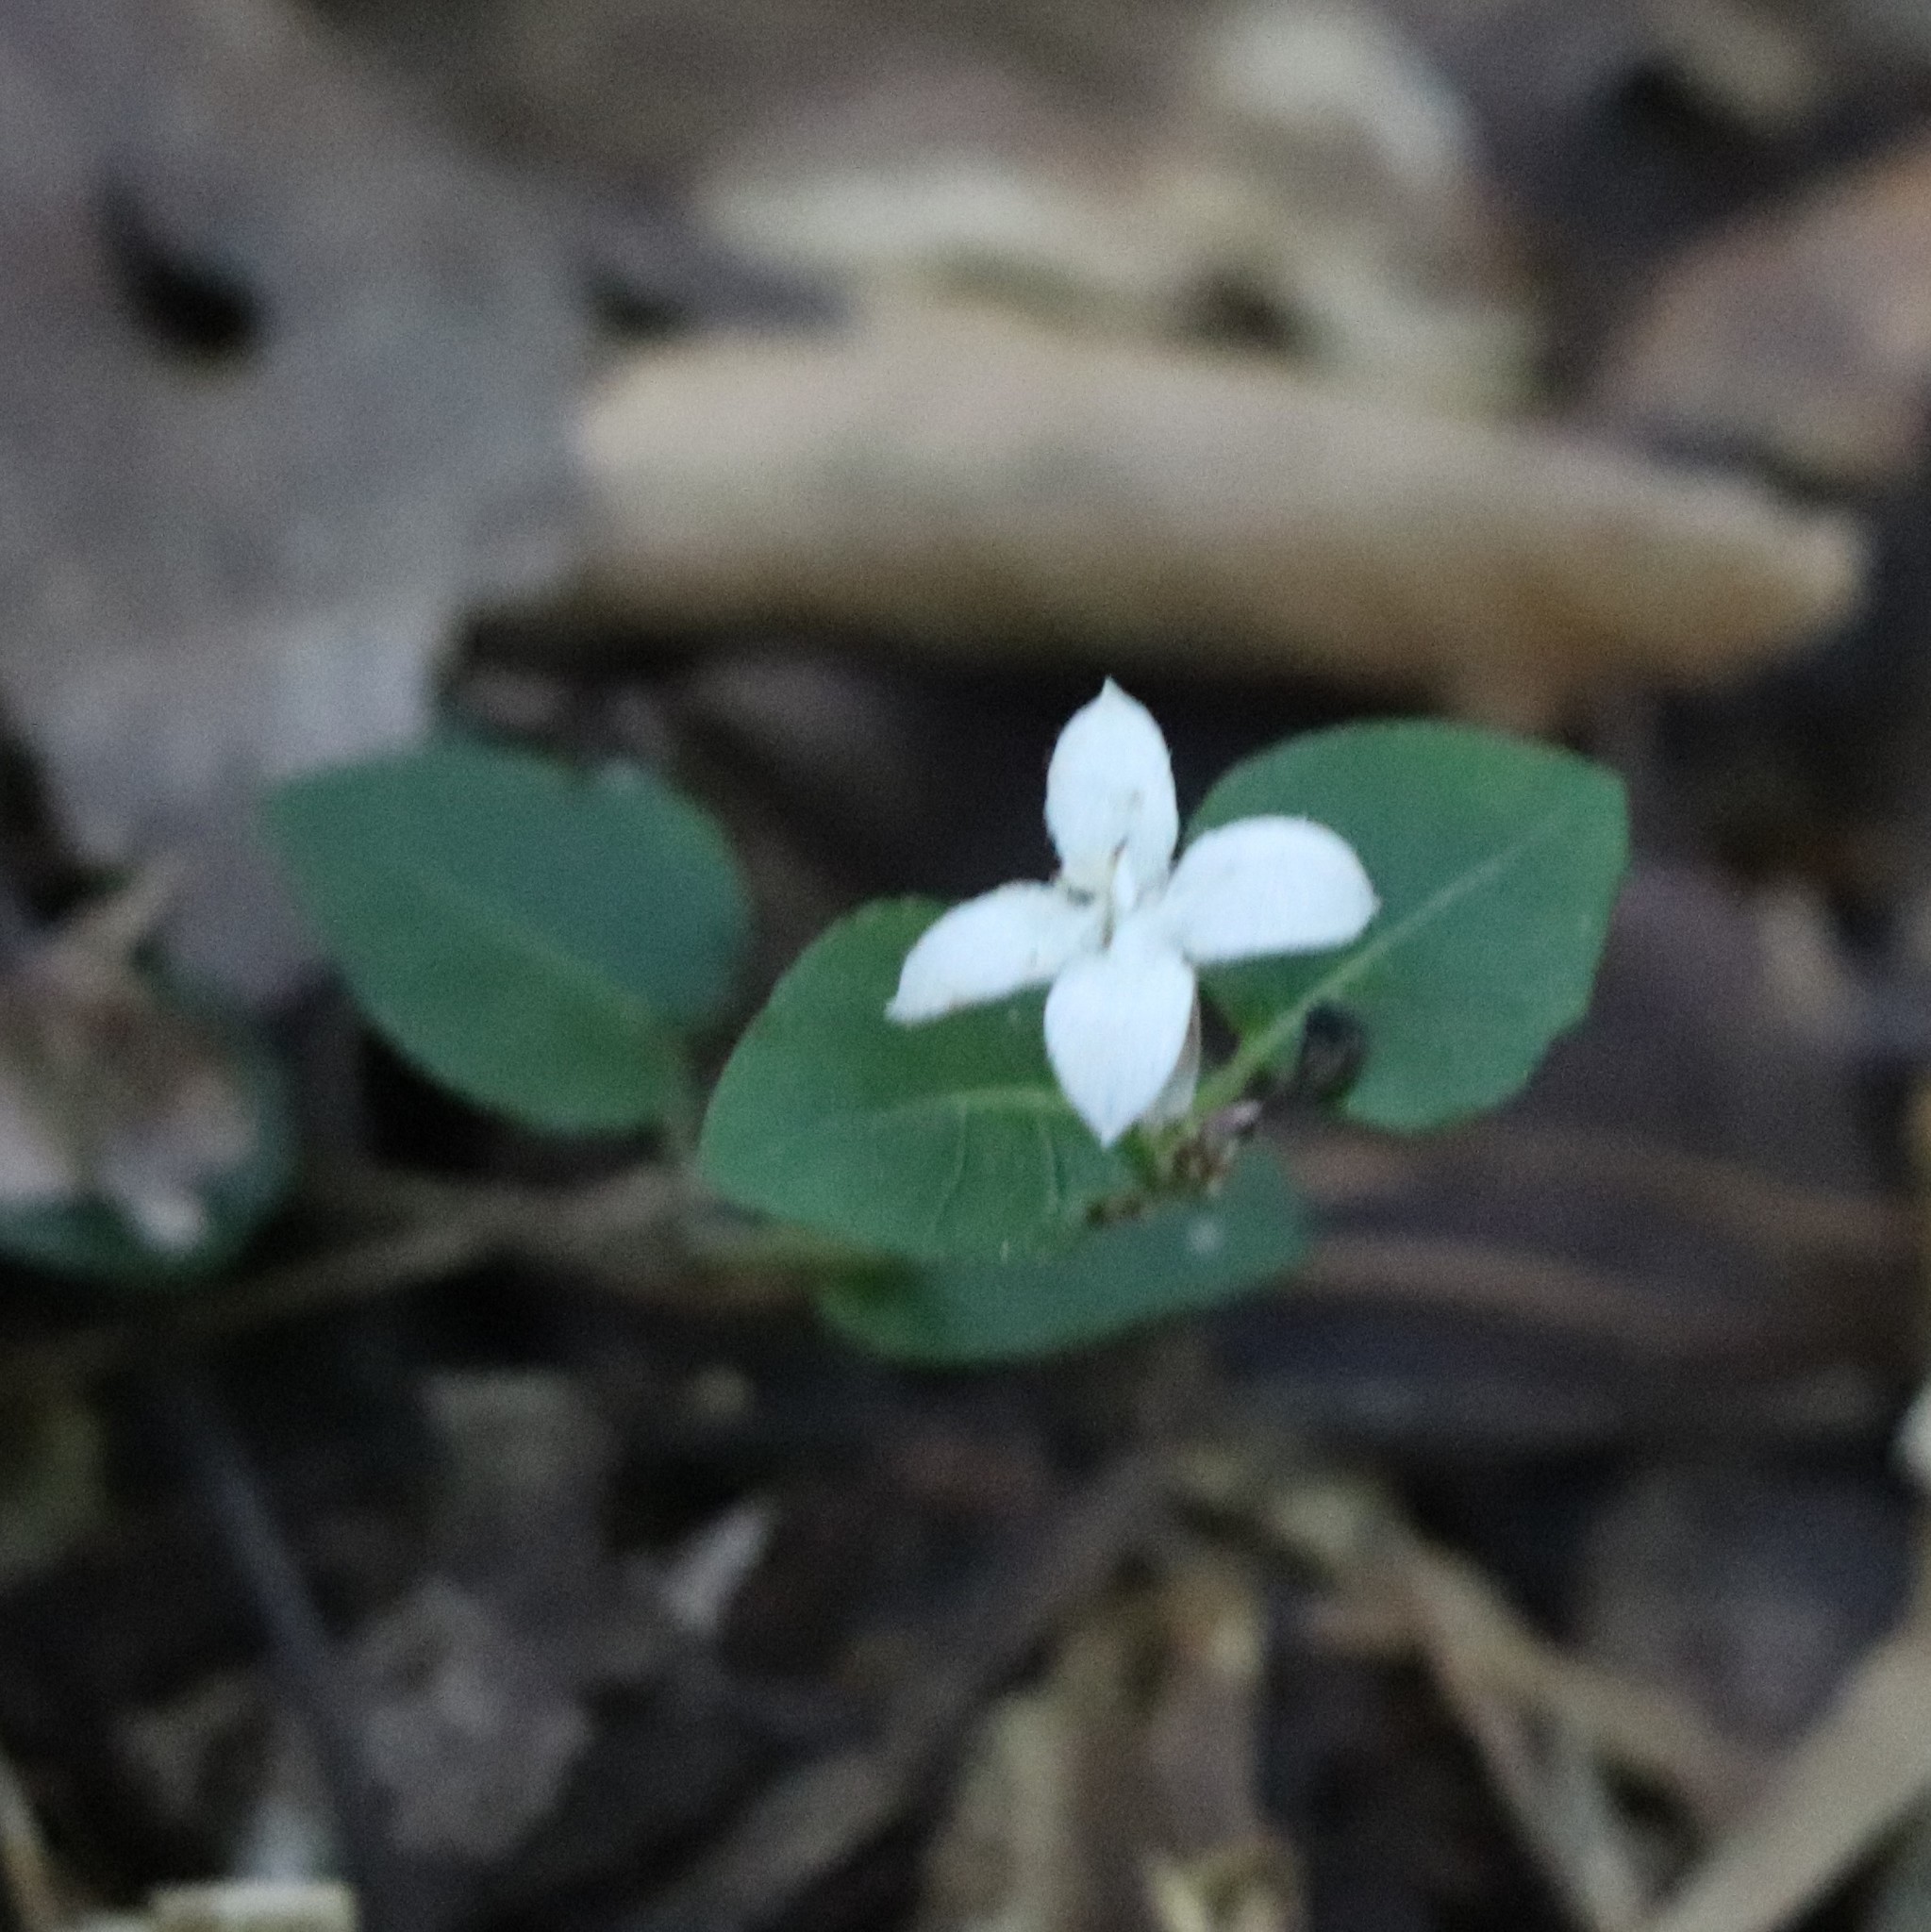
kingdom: Plantae
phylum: Tracheophyta
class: Magnoliopsida
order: Gentianales
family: Rubiaceae
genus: Mitchella
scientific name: Mitchella repens
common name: Partridge-berry
